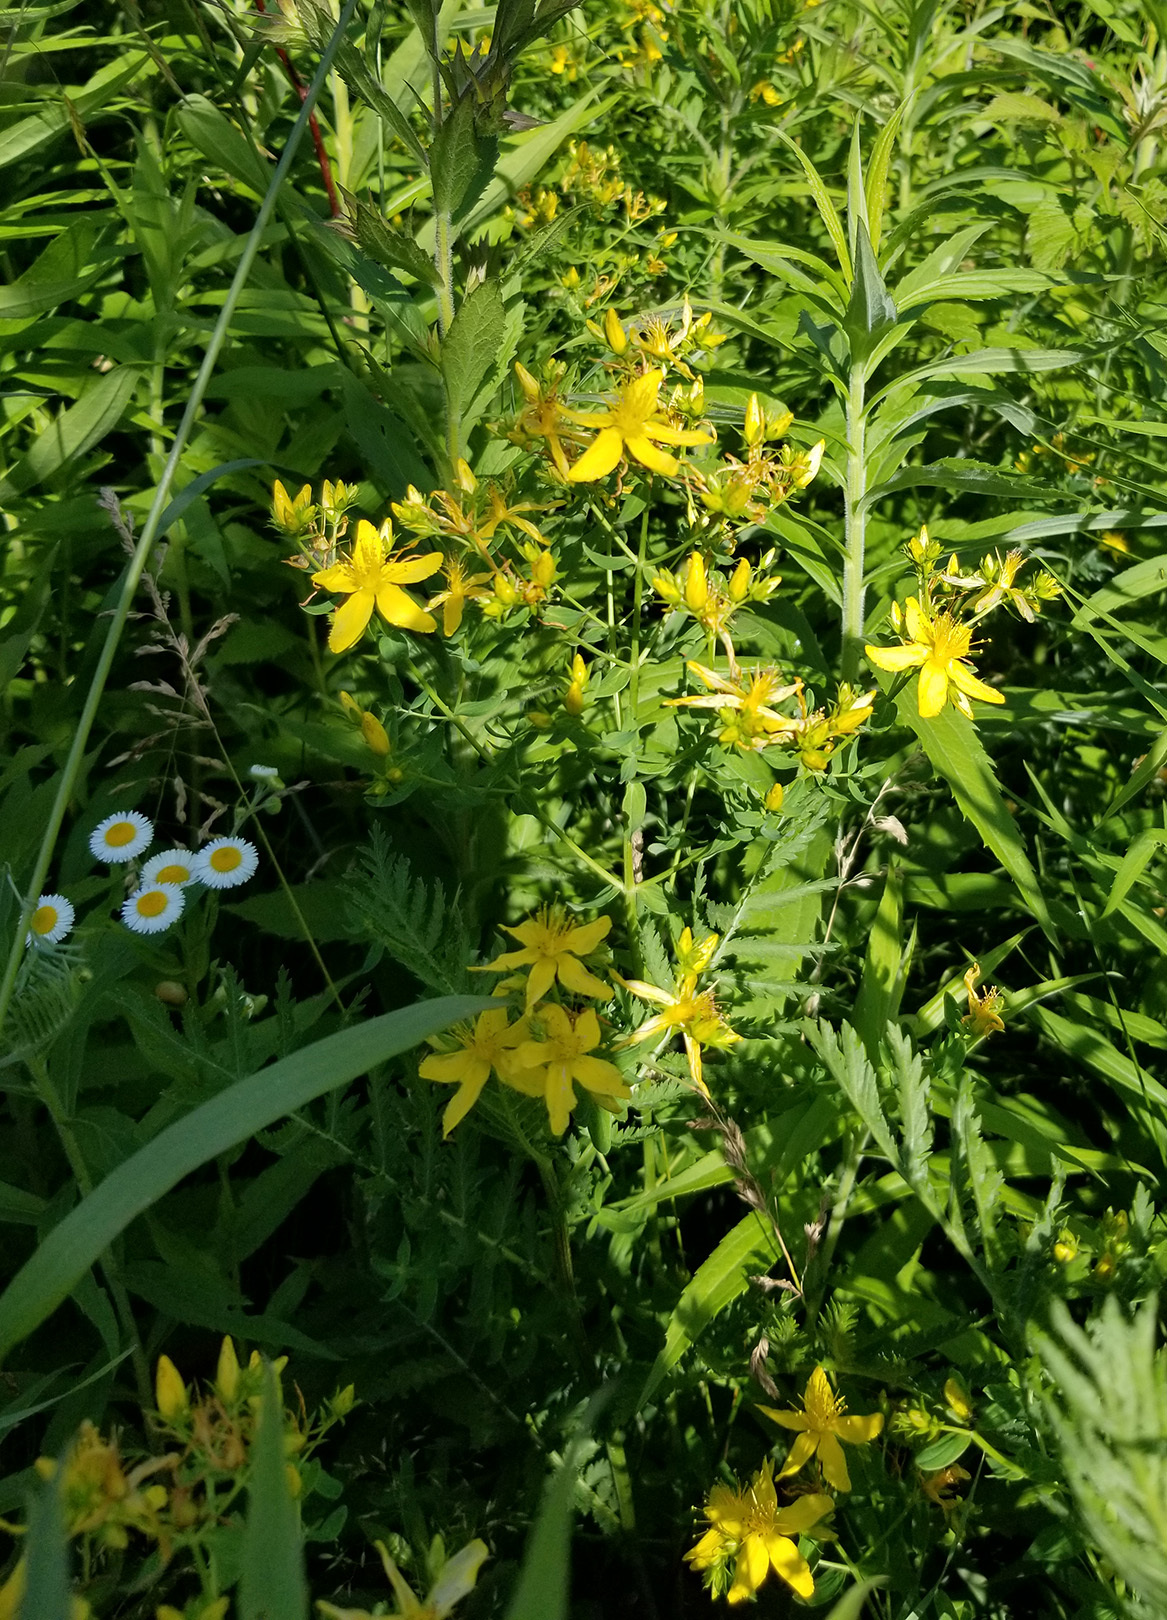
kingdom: Plantae
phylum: Tracheophyta
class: Magnoliopsida
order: Malpighiales
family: Hypericaceae
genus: Hypericum
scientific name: Hypericum perforatum
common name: Common st. johnswort
